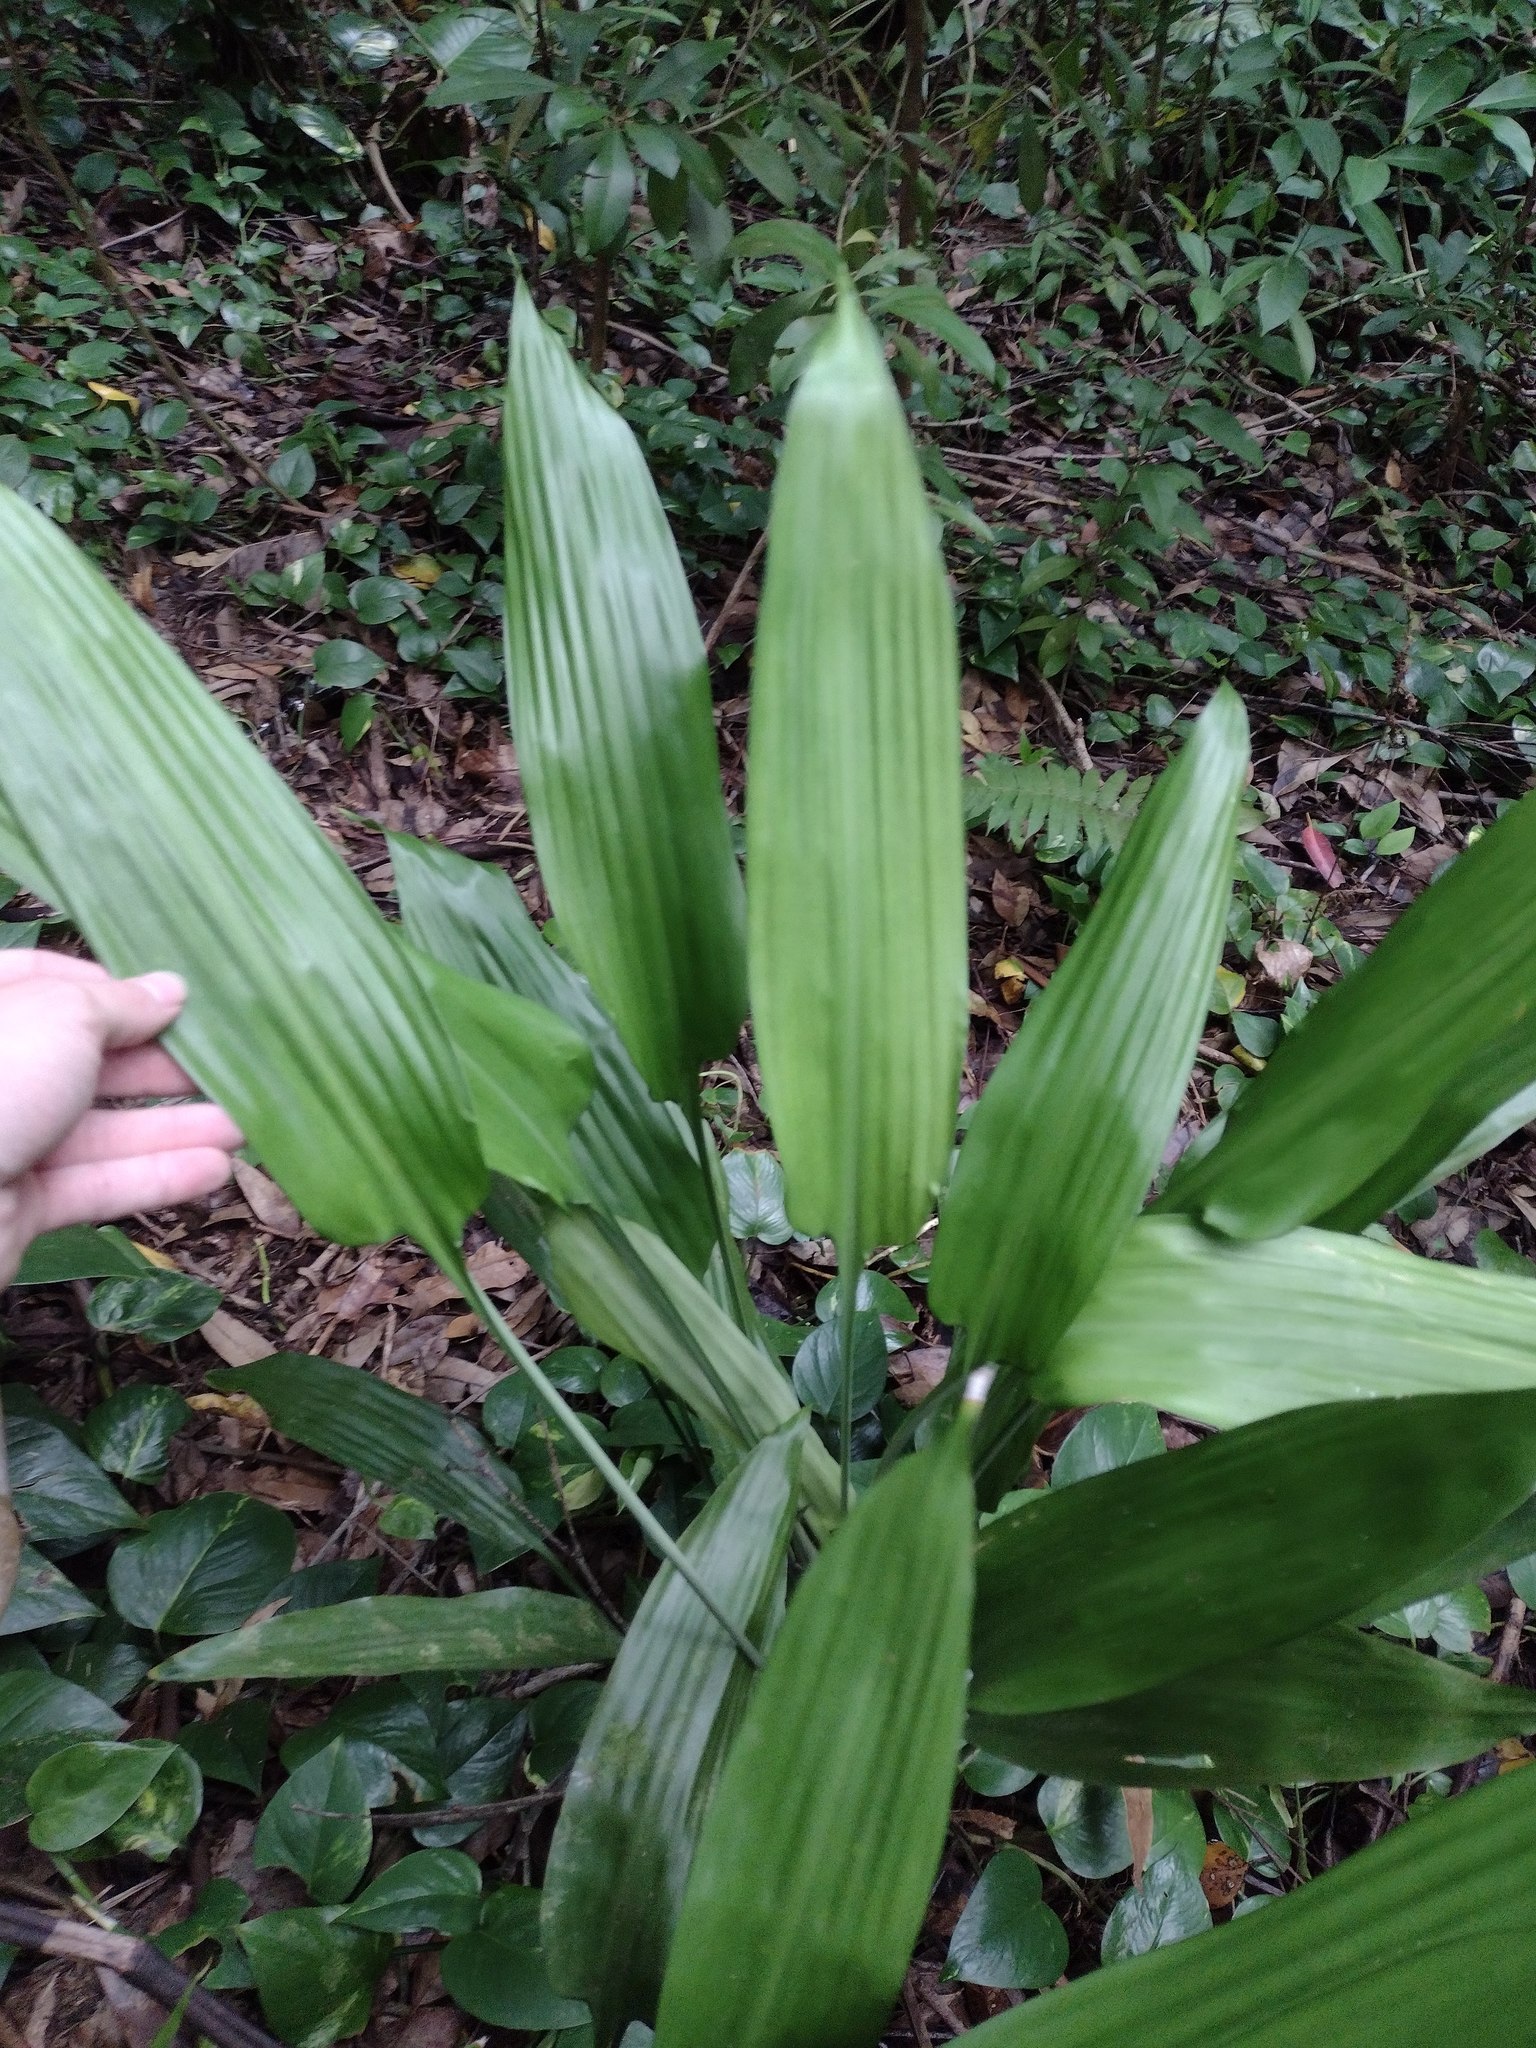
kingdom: Plantae
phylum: Tracheophyta
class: Liliopsida
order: Asparagales
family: Asparagaceae
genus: Dracaena
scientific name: Dracaena aubryana
